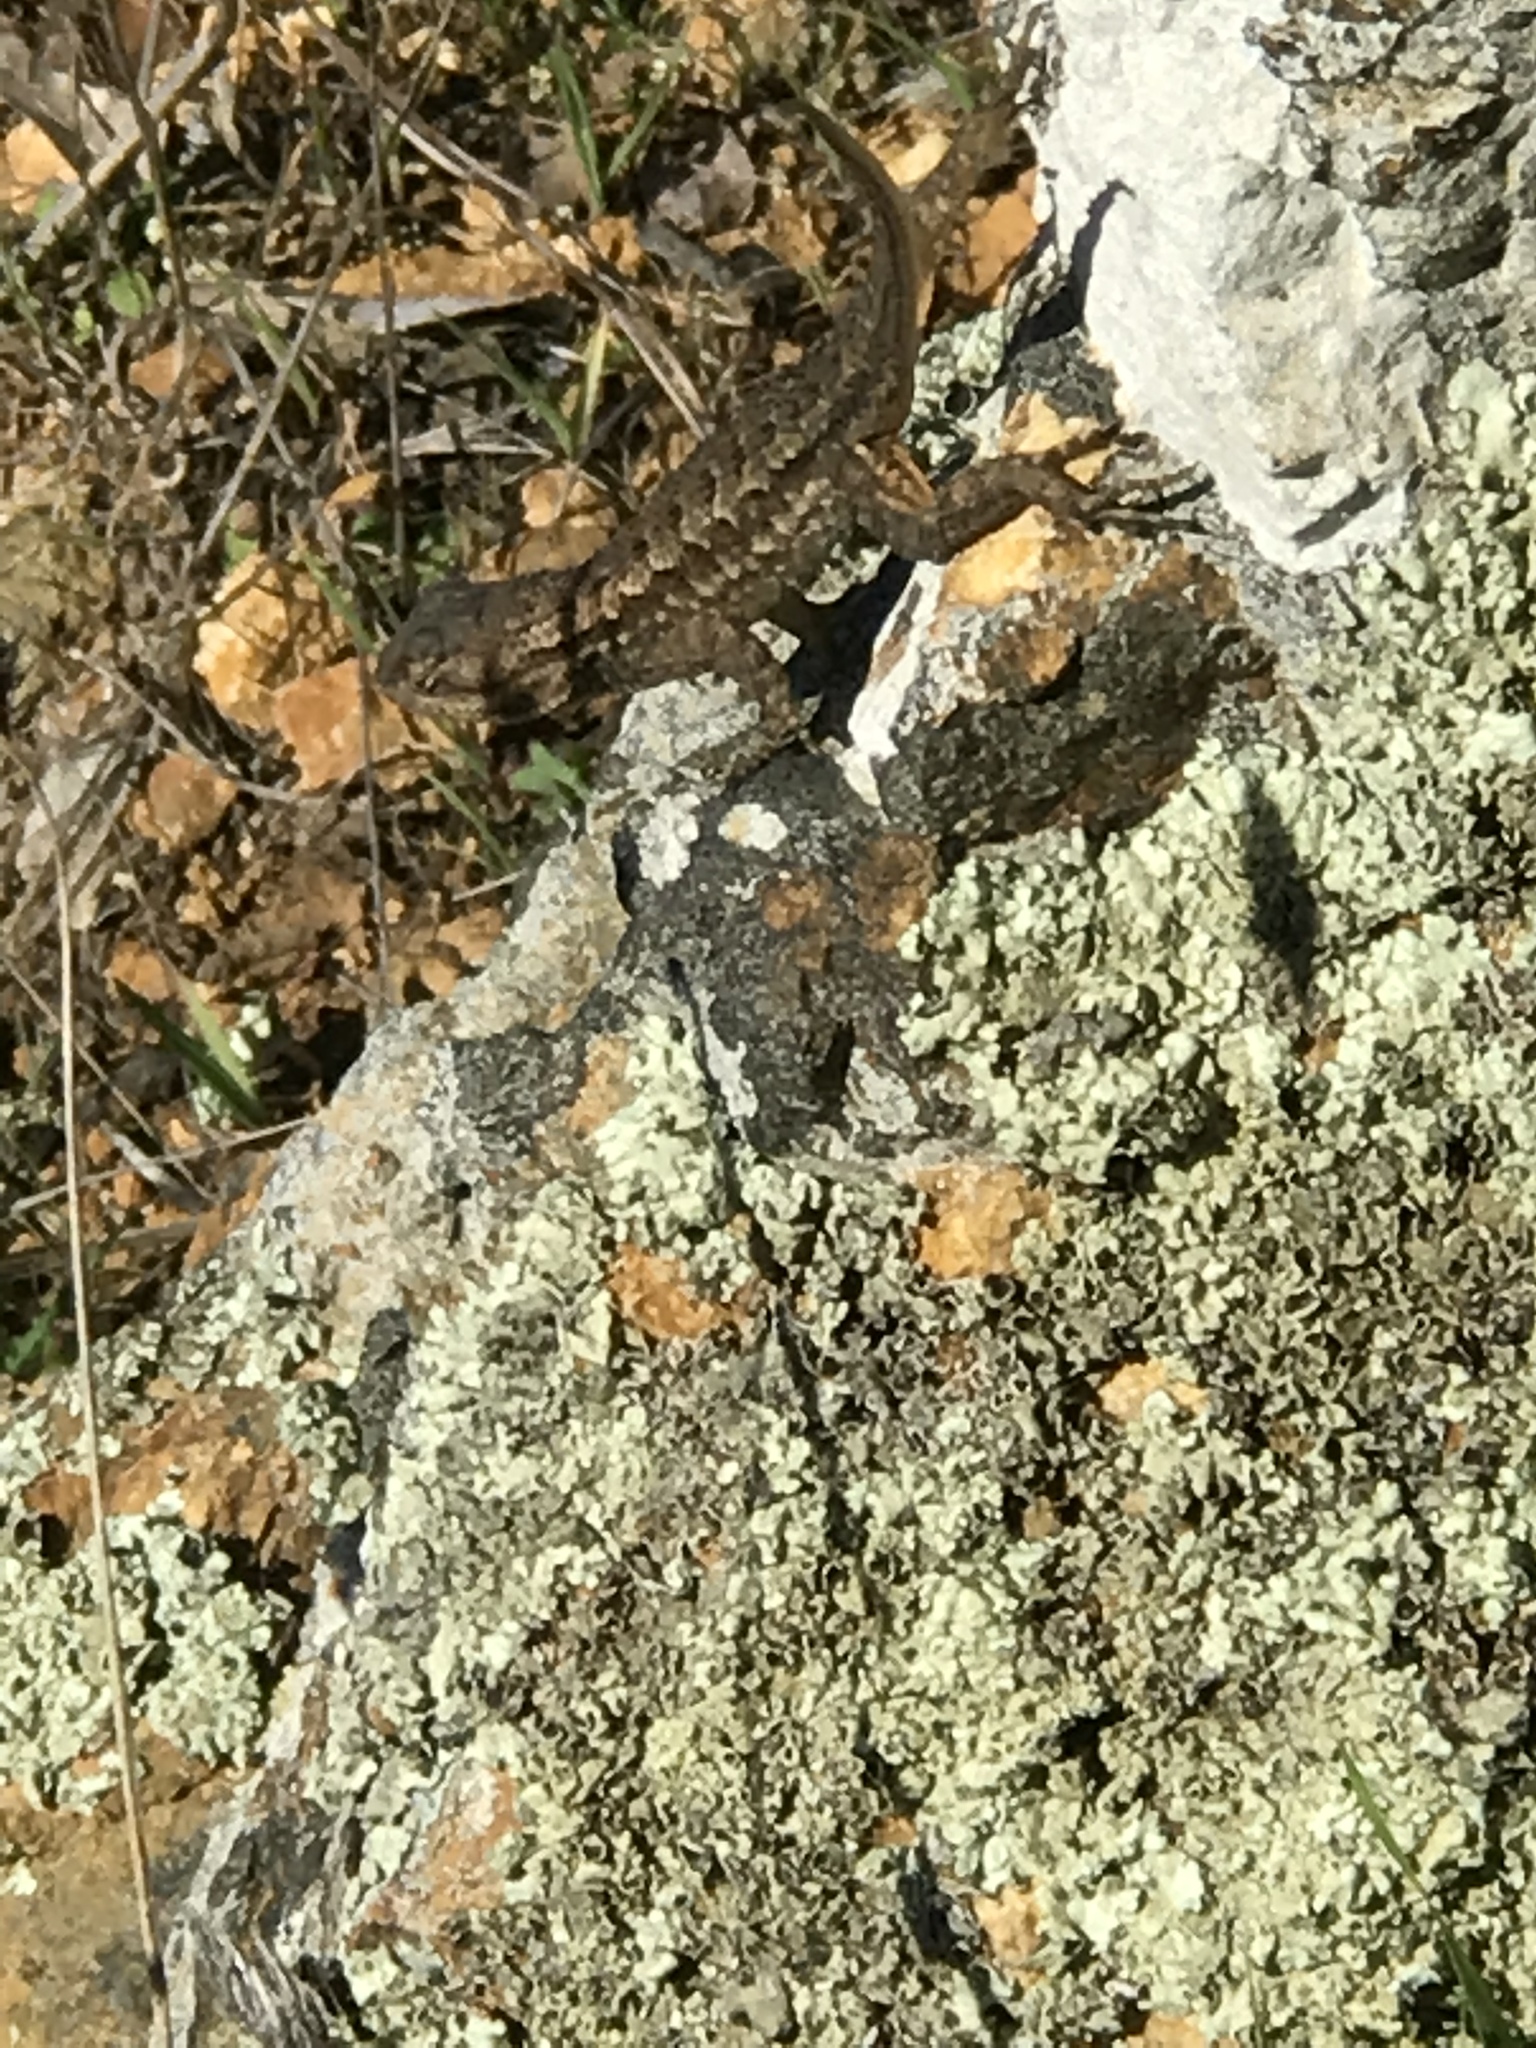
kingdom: Animalia
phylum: Chordata
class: Squamata
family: Phrynosomatidae
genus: Sceloporus
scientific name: Sceloporus occidentalis
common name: Western fence lizard
